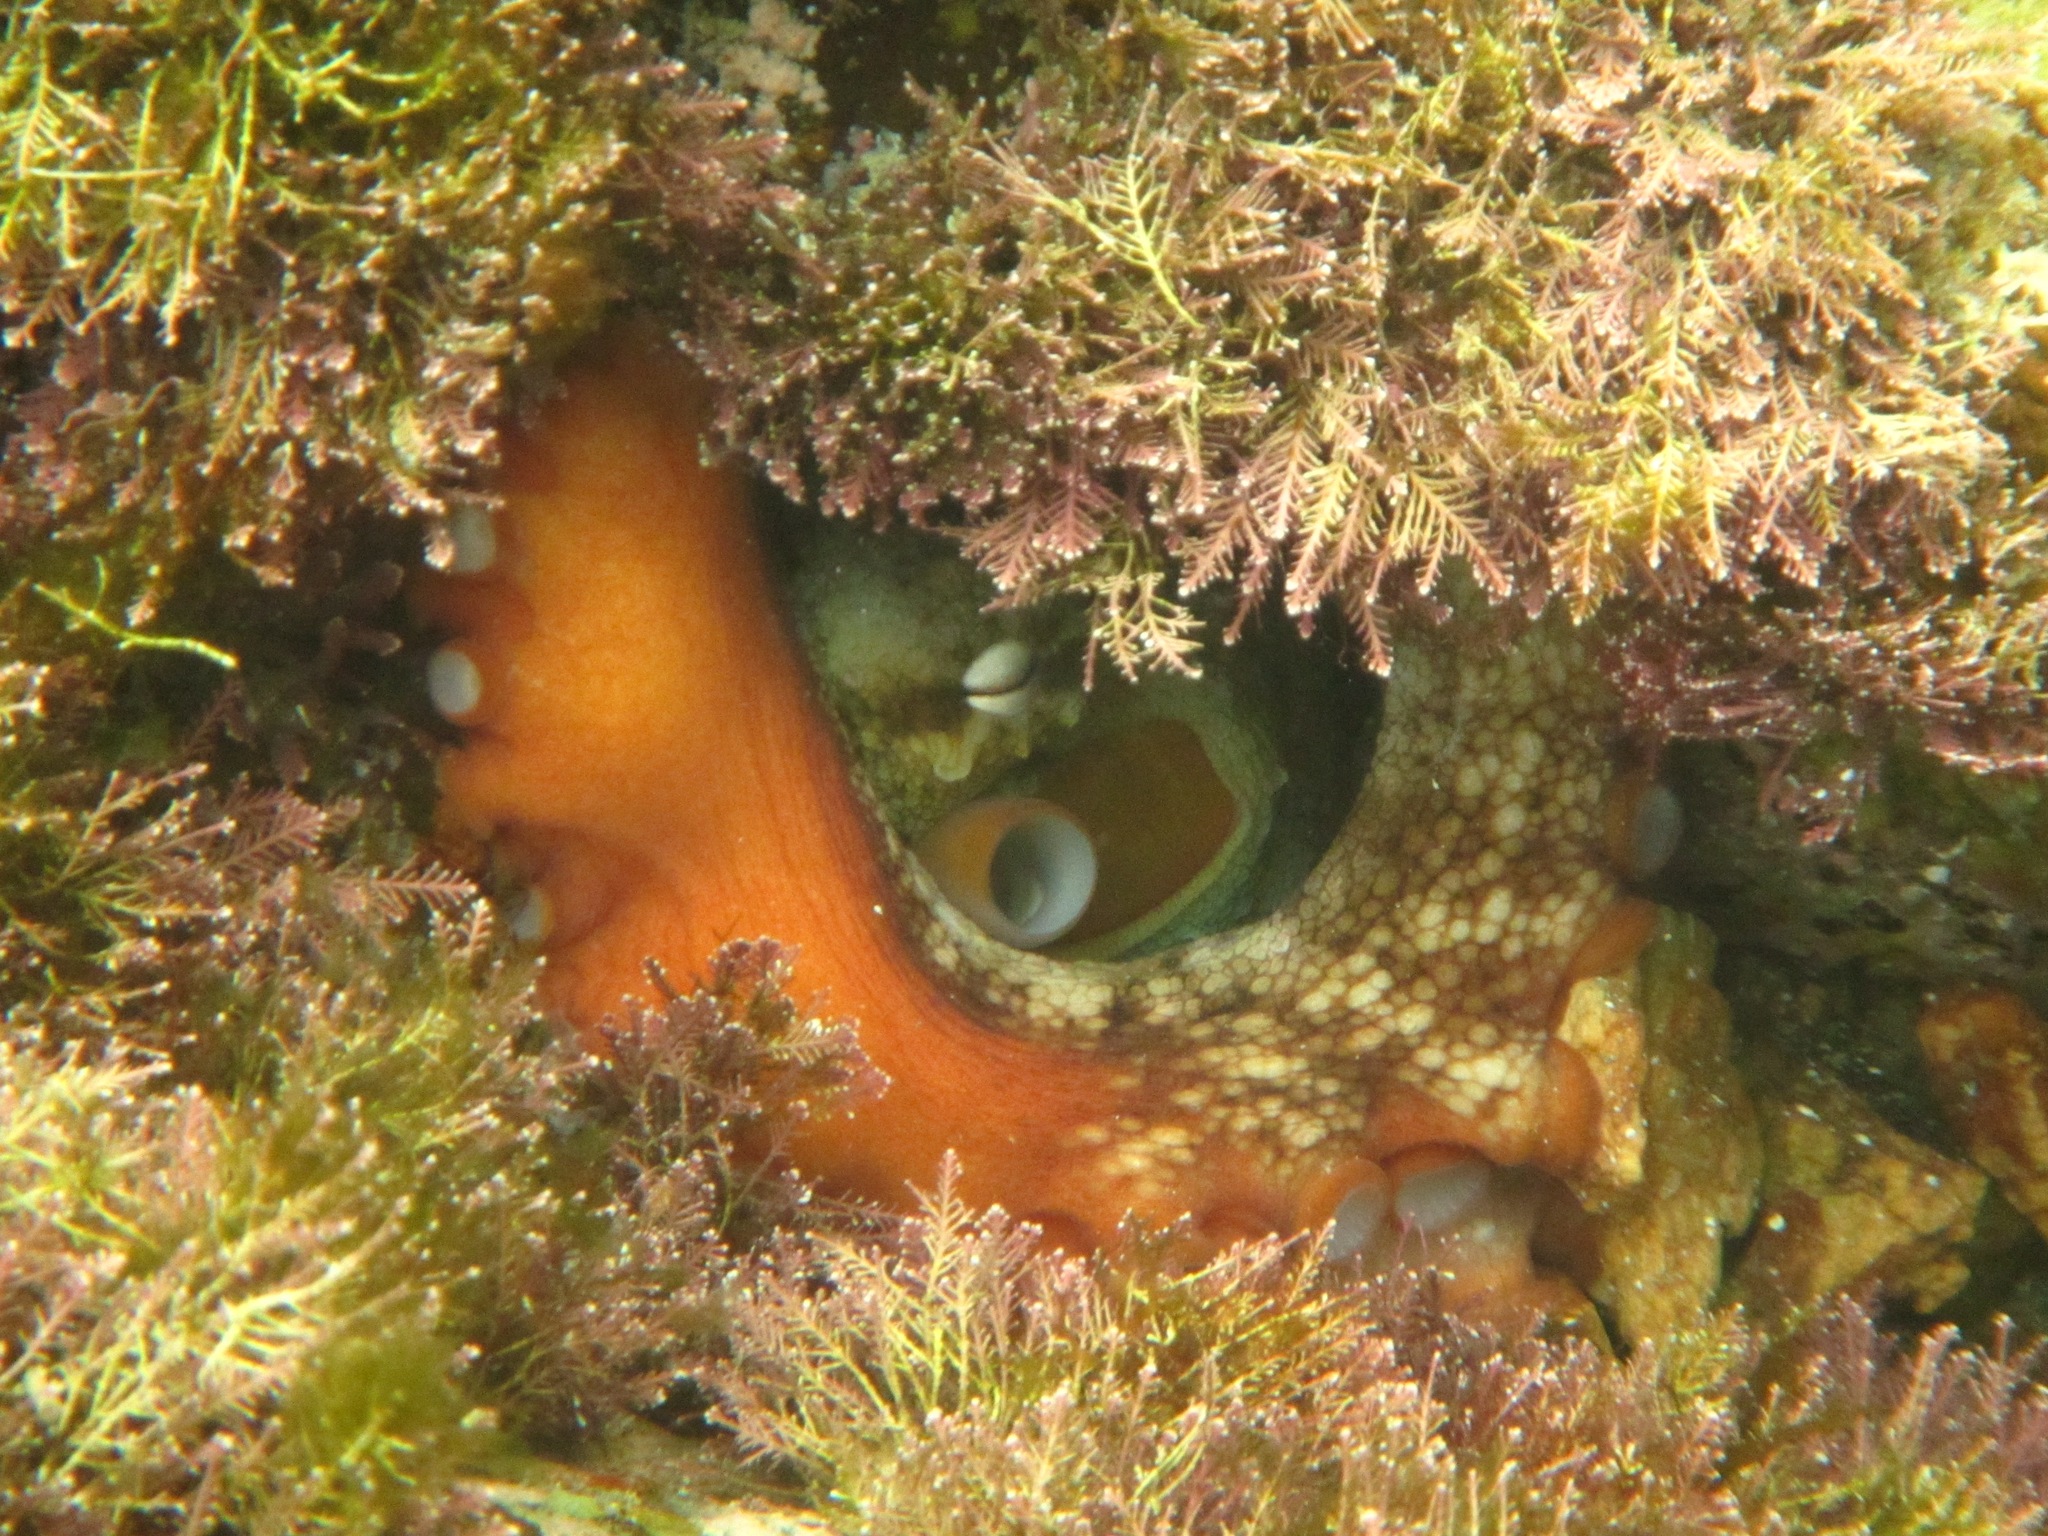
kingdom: Animalia
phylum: Mollusca
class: Cephalopoda
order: Octopoda
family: Octopodidae
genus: Octopus
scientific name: Octopus tetricus
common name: Sydney octopus
